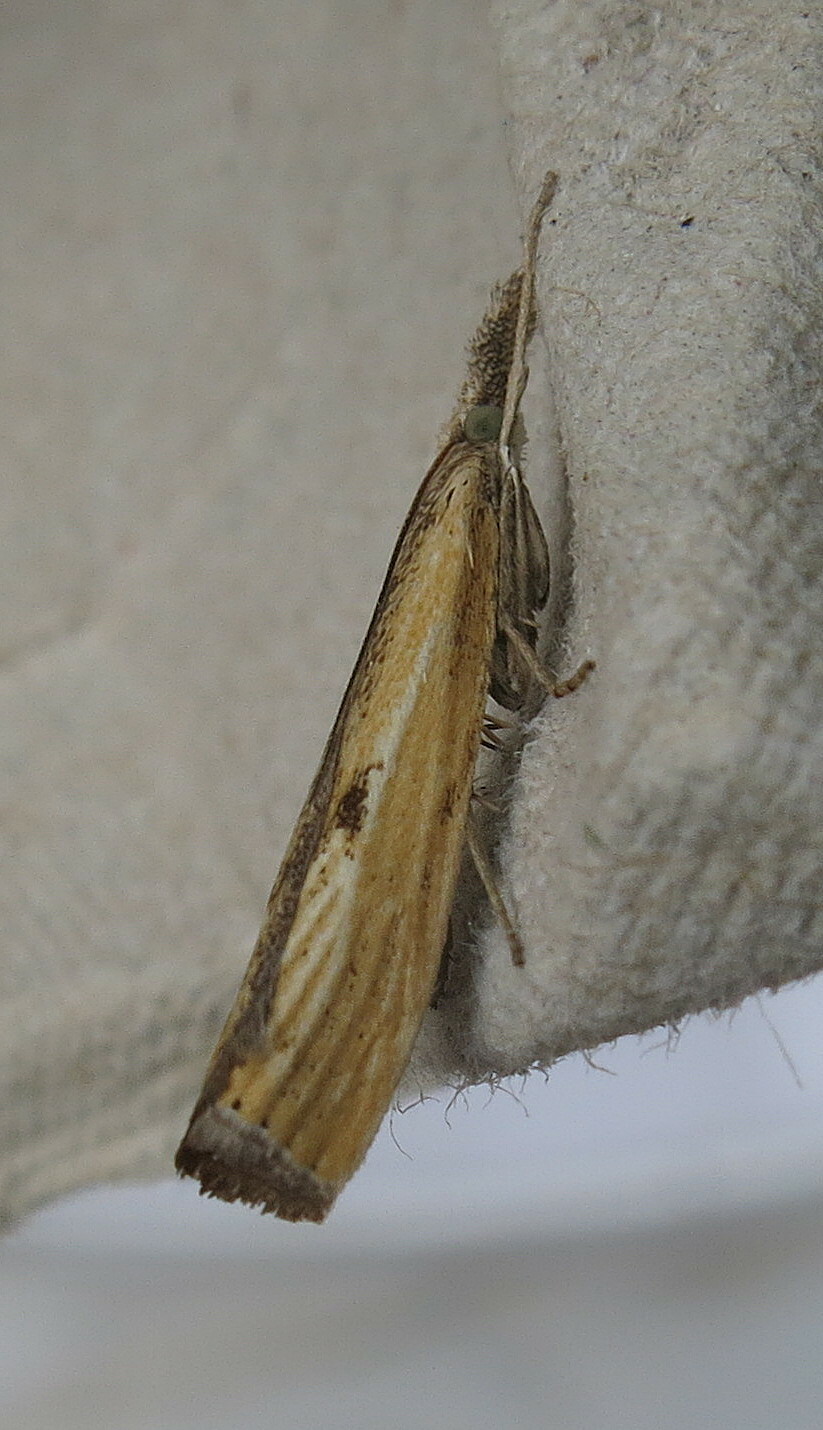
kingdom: Animalia
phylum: Arthropoda
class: Insecta
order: Lepidoptera
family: Crambidae
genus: Agriphila
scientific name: Agriphila inquinatella
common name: Barred grass-veneer
